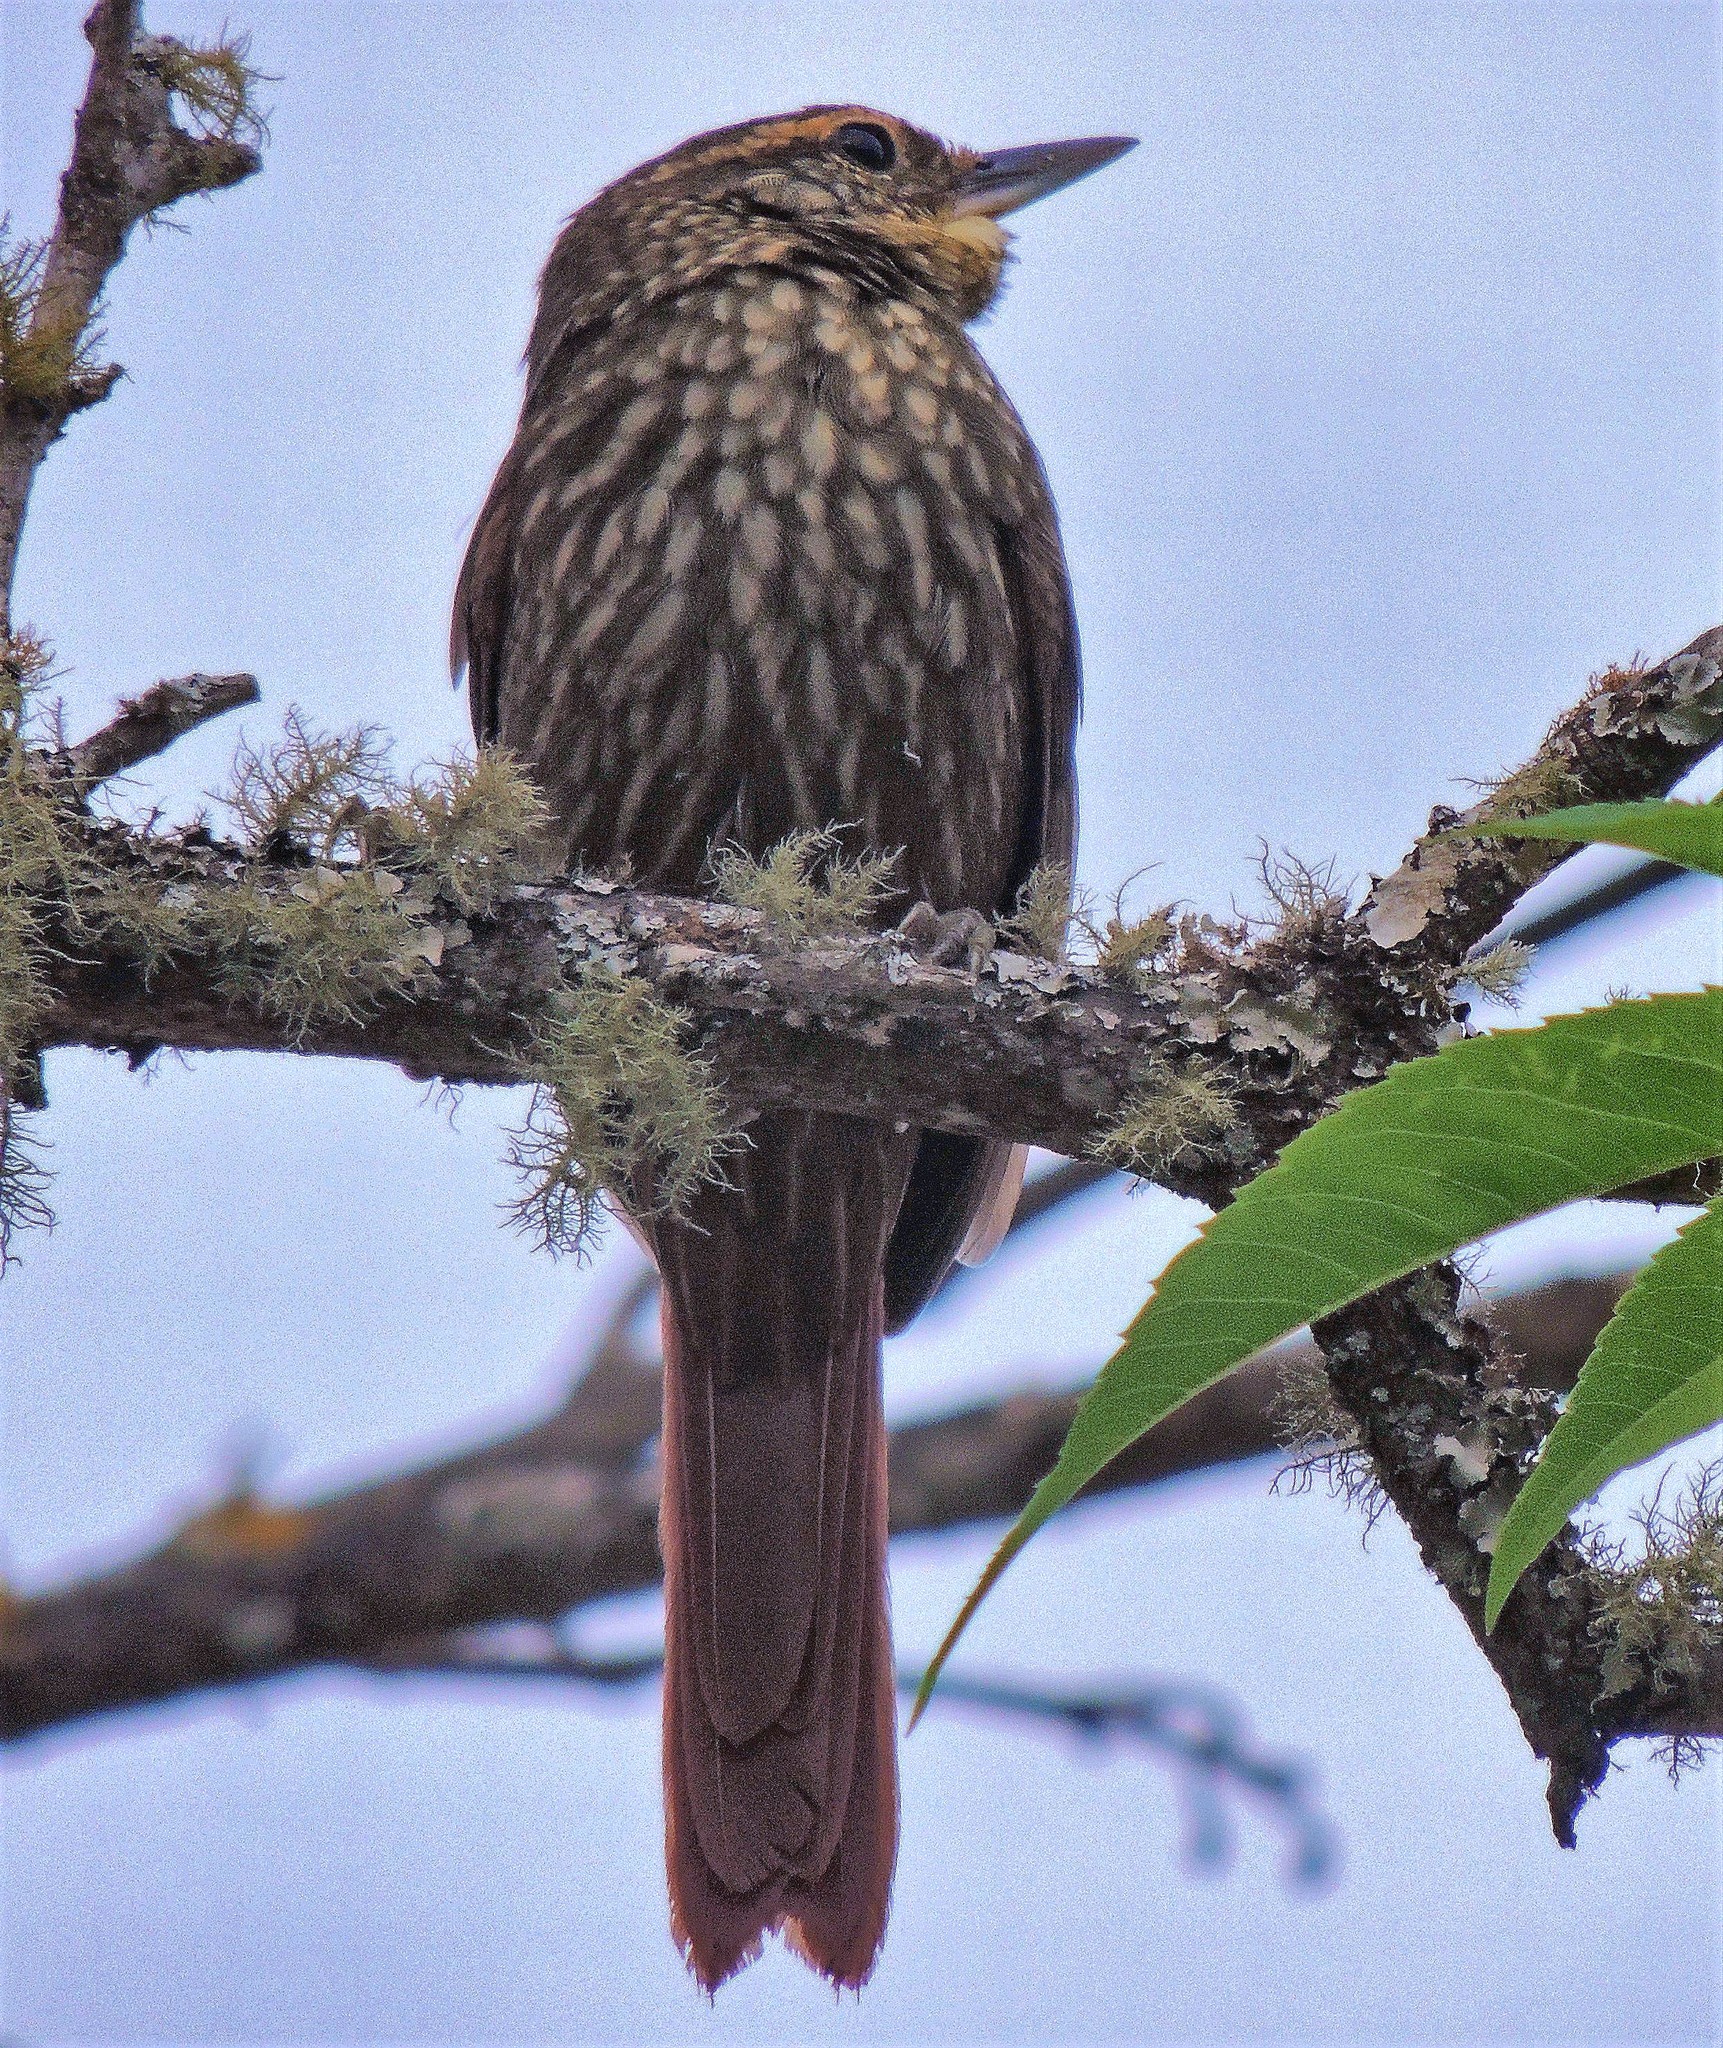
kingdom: Animalia
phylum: Chordata
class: Aves
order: Passeriformes
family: Furnariidae
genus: Syndactyla
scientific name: Syndactyla rufosuperciliata
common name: Buff-browed foliage-gleaner
